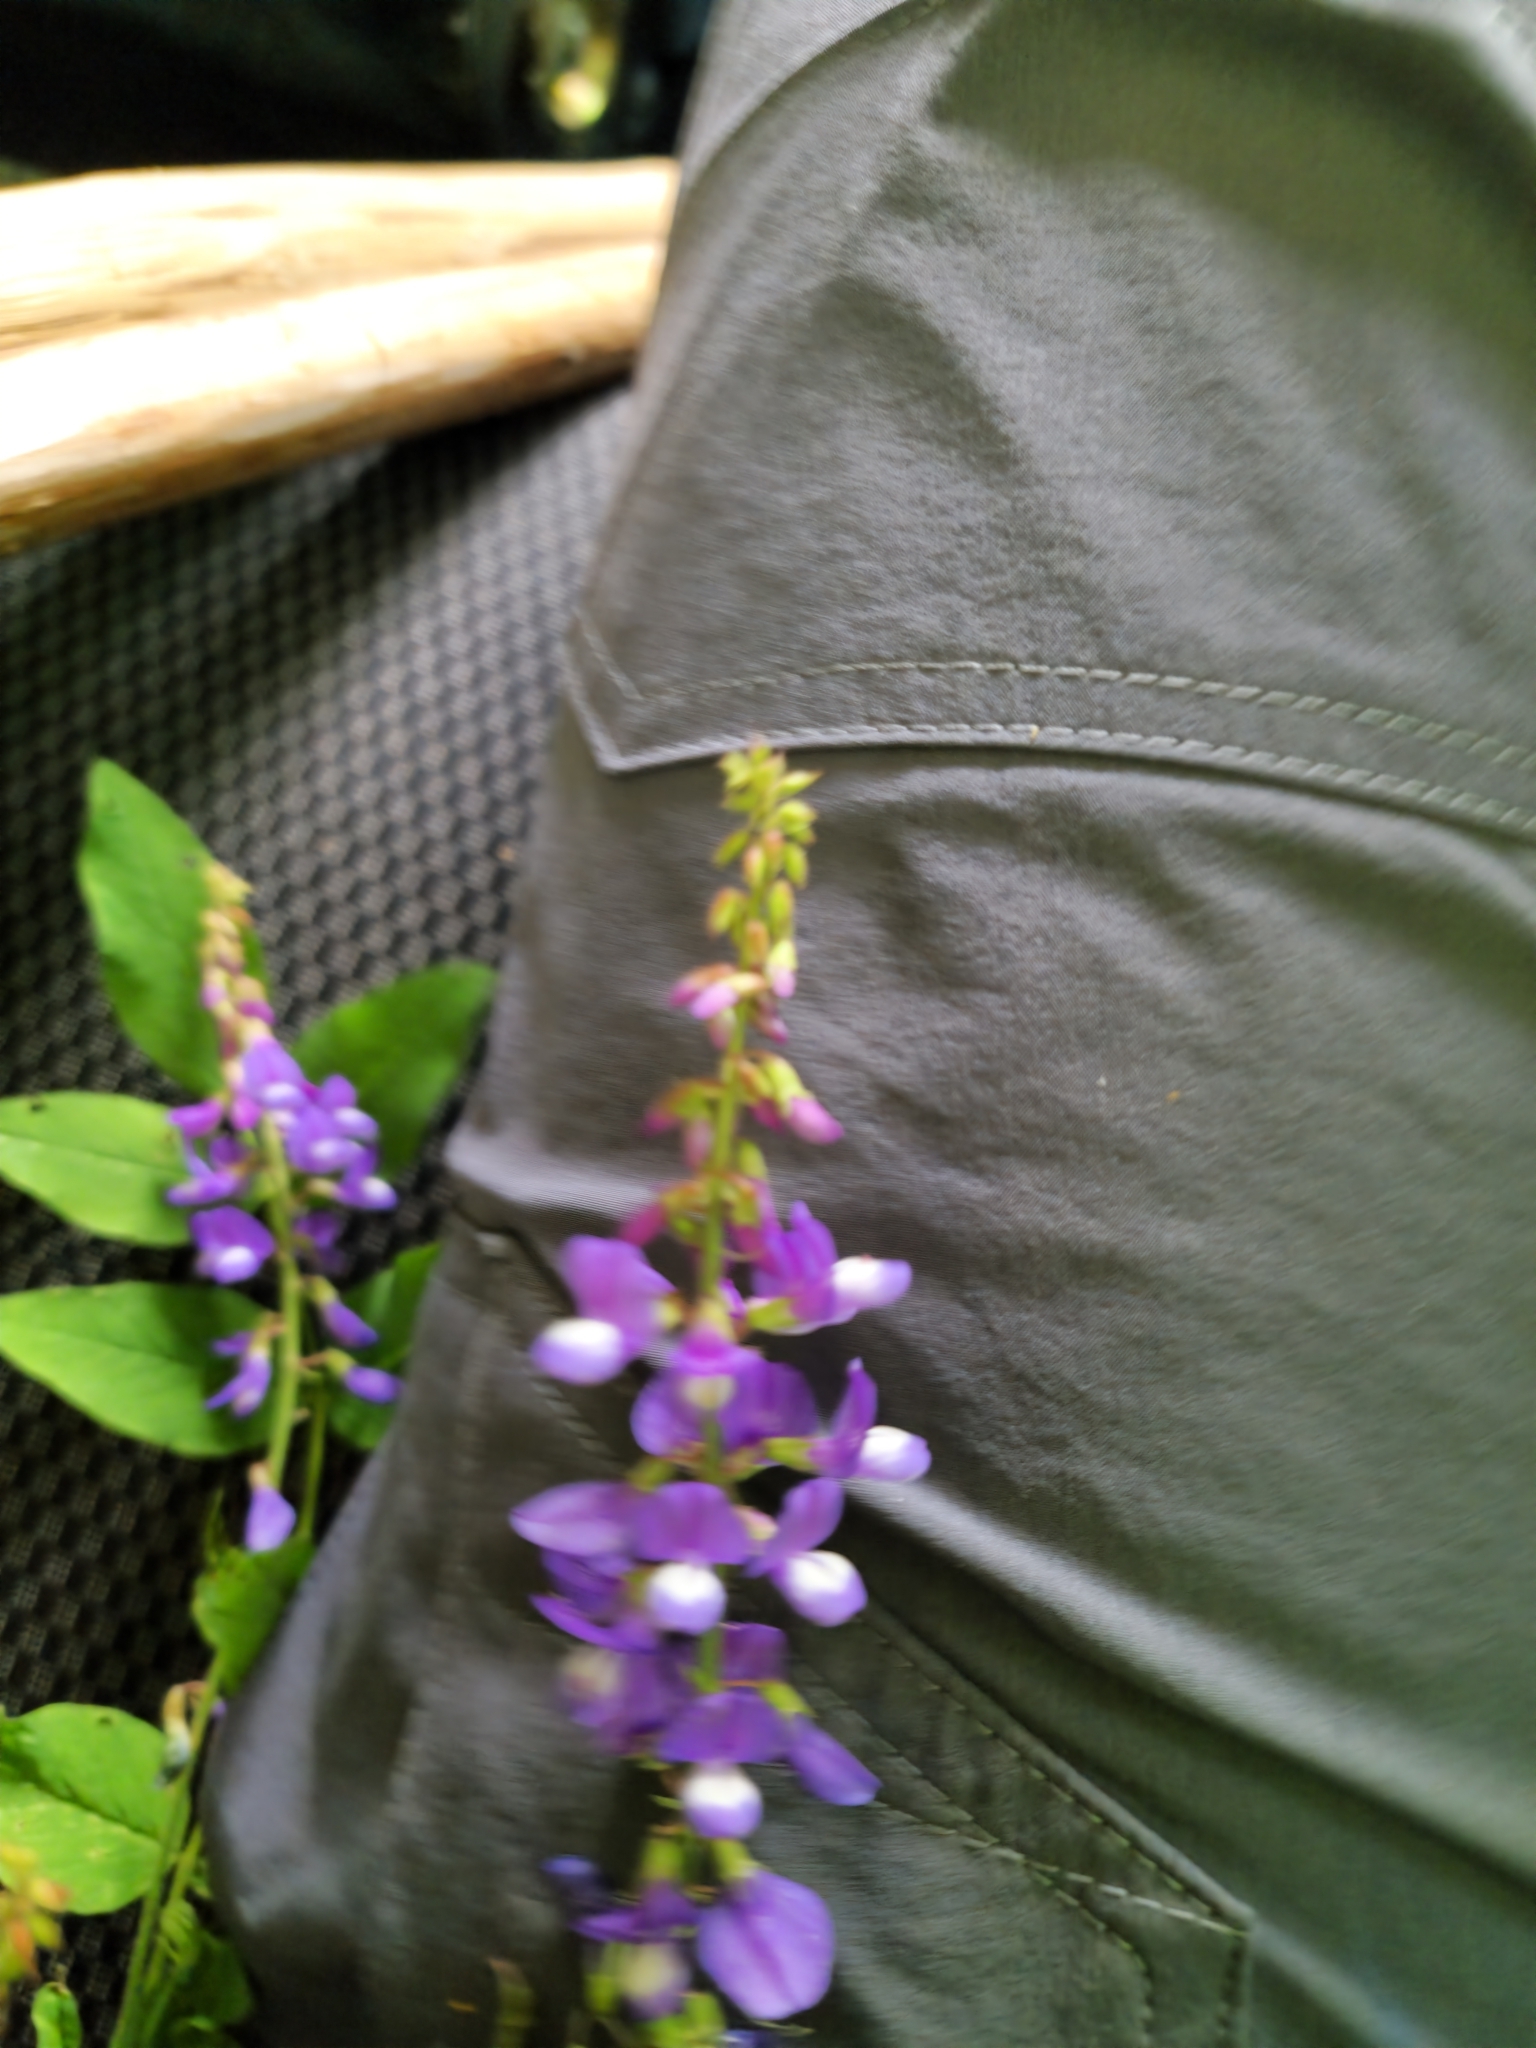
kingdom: Plantae
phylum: Tracheophyta
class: Magnoliopsida
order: Fabales
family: Fabaceae
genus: Galega
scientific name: Galega orientalis
